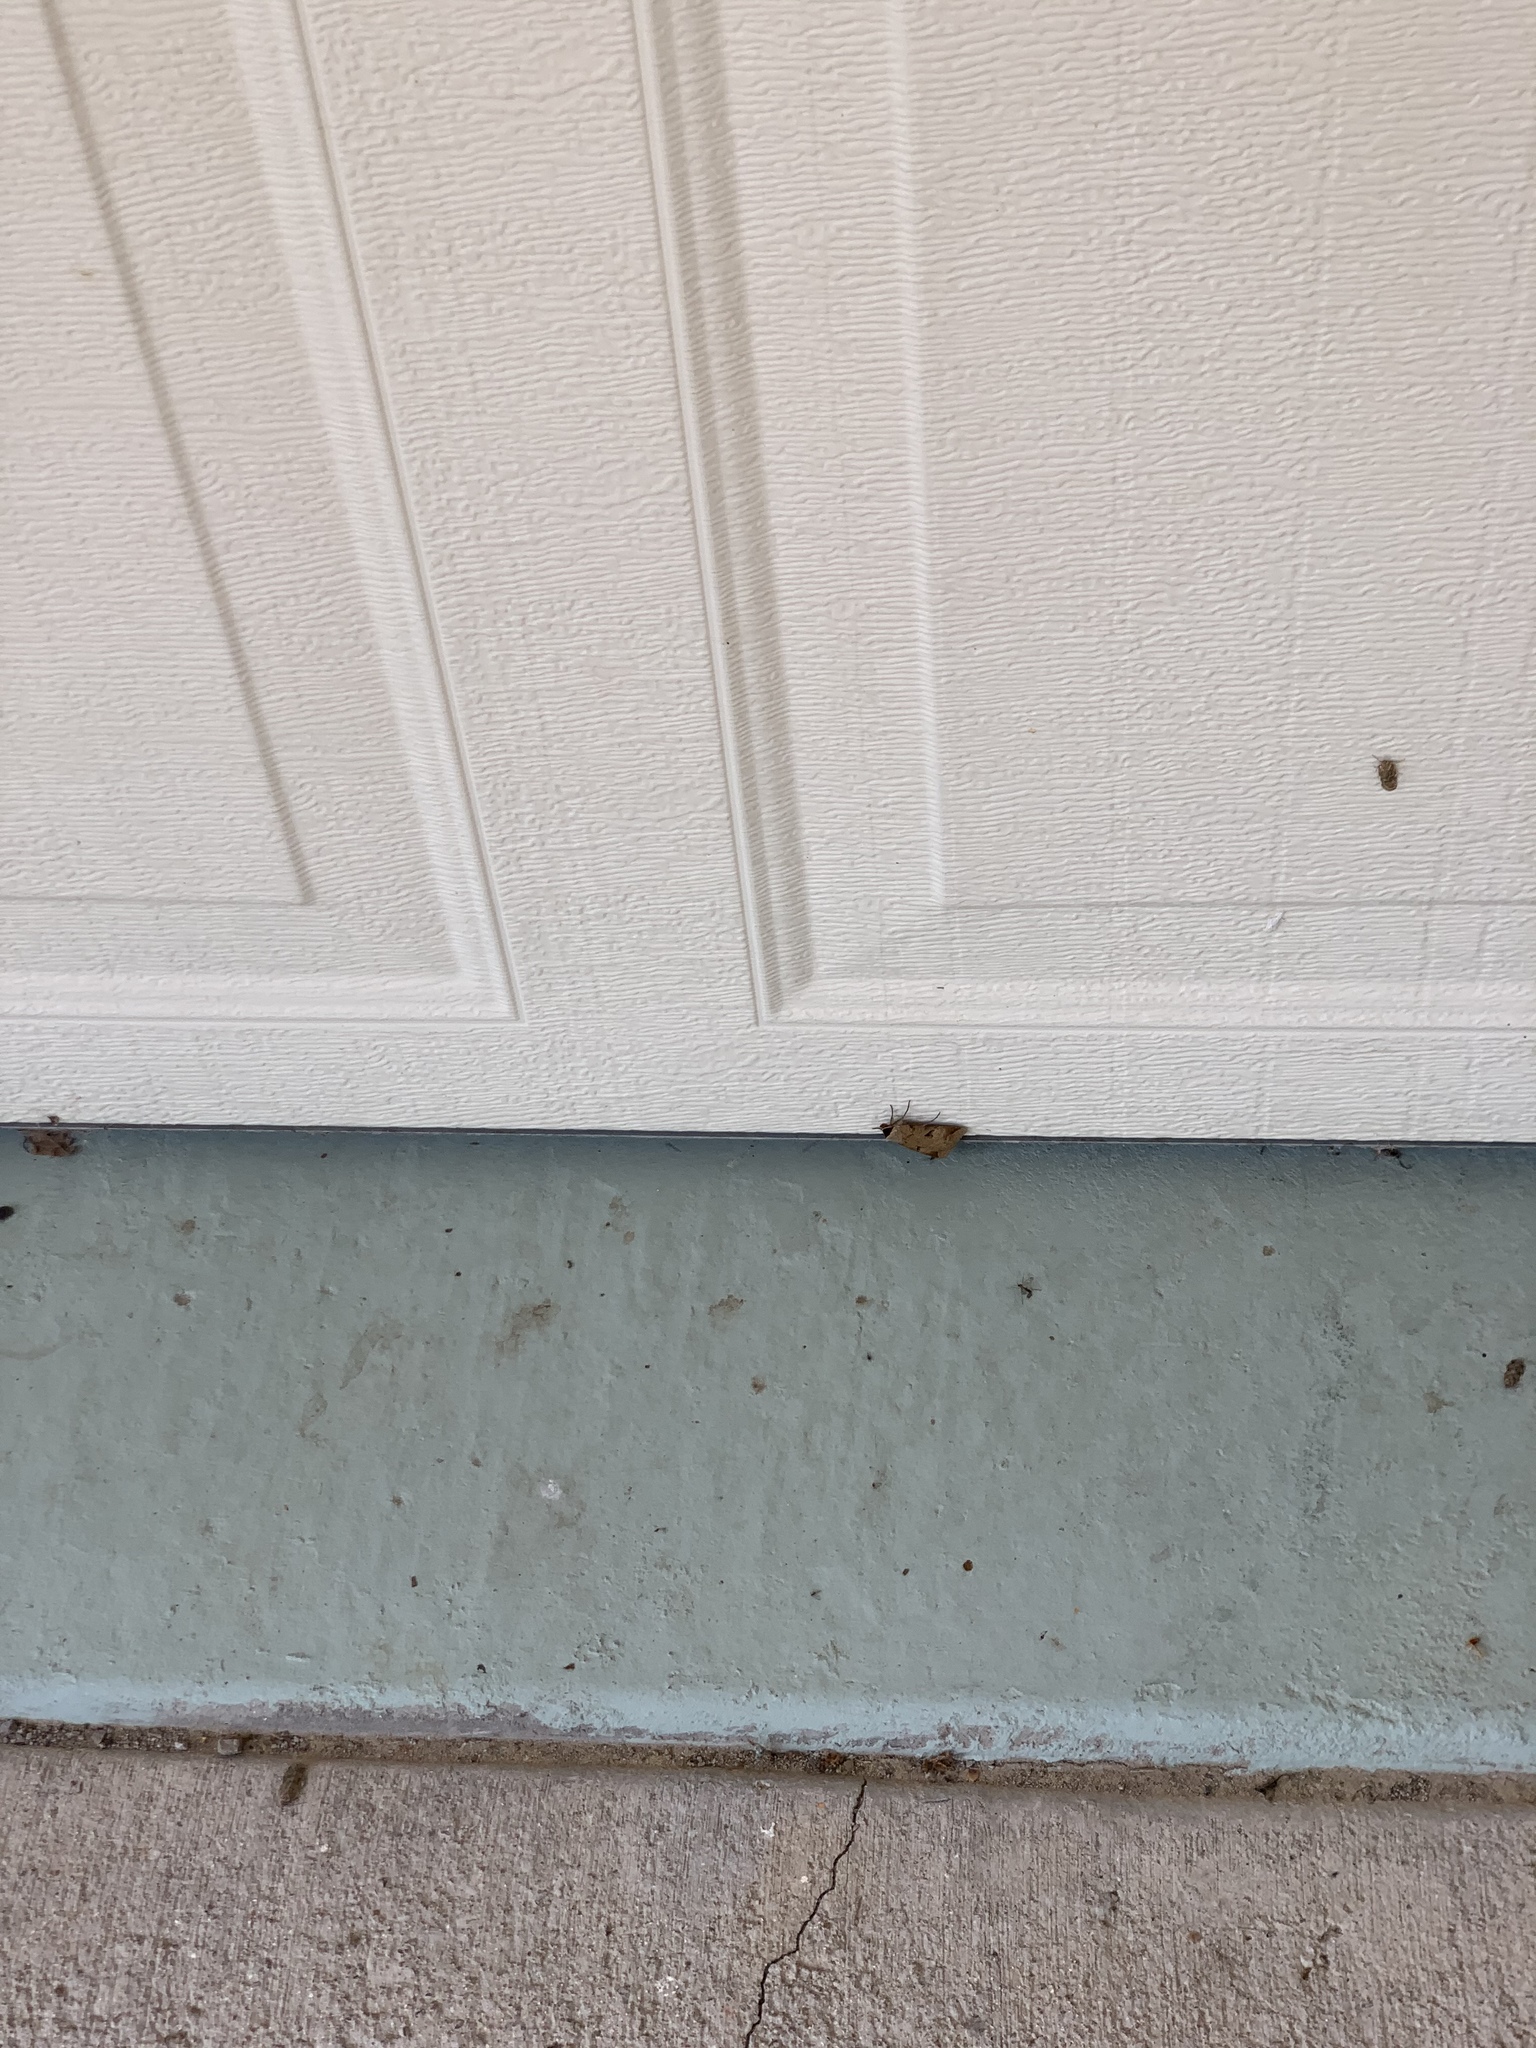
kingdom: Animalia
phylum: Arthropoda
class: Insecta
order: Lepidoptera
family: Erebidae
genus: Lygephila
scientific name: Lygephila victoria
